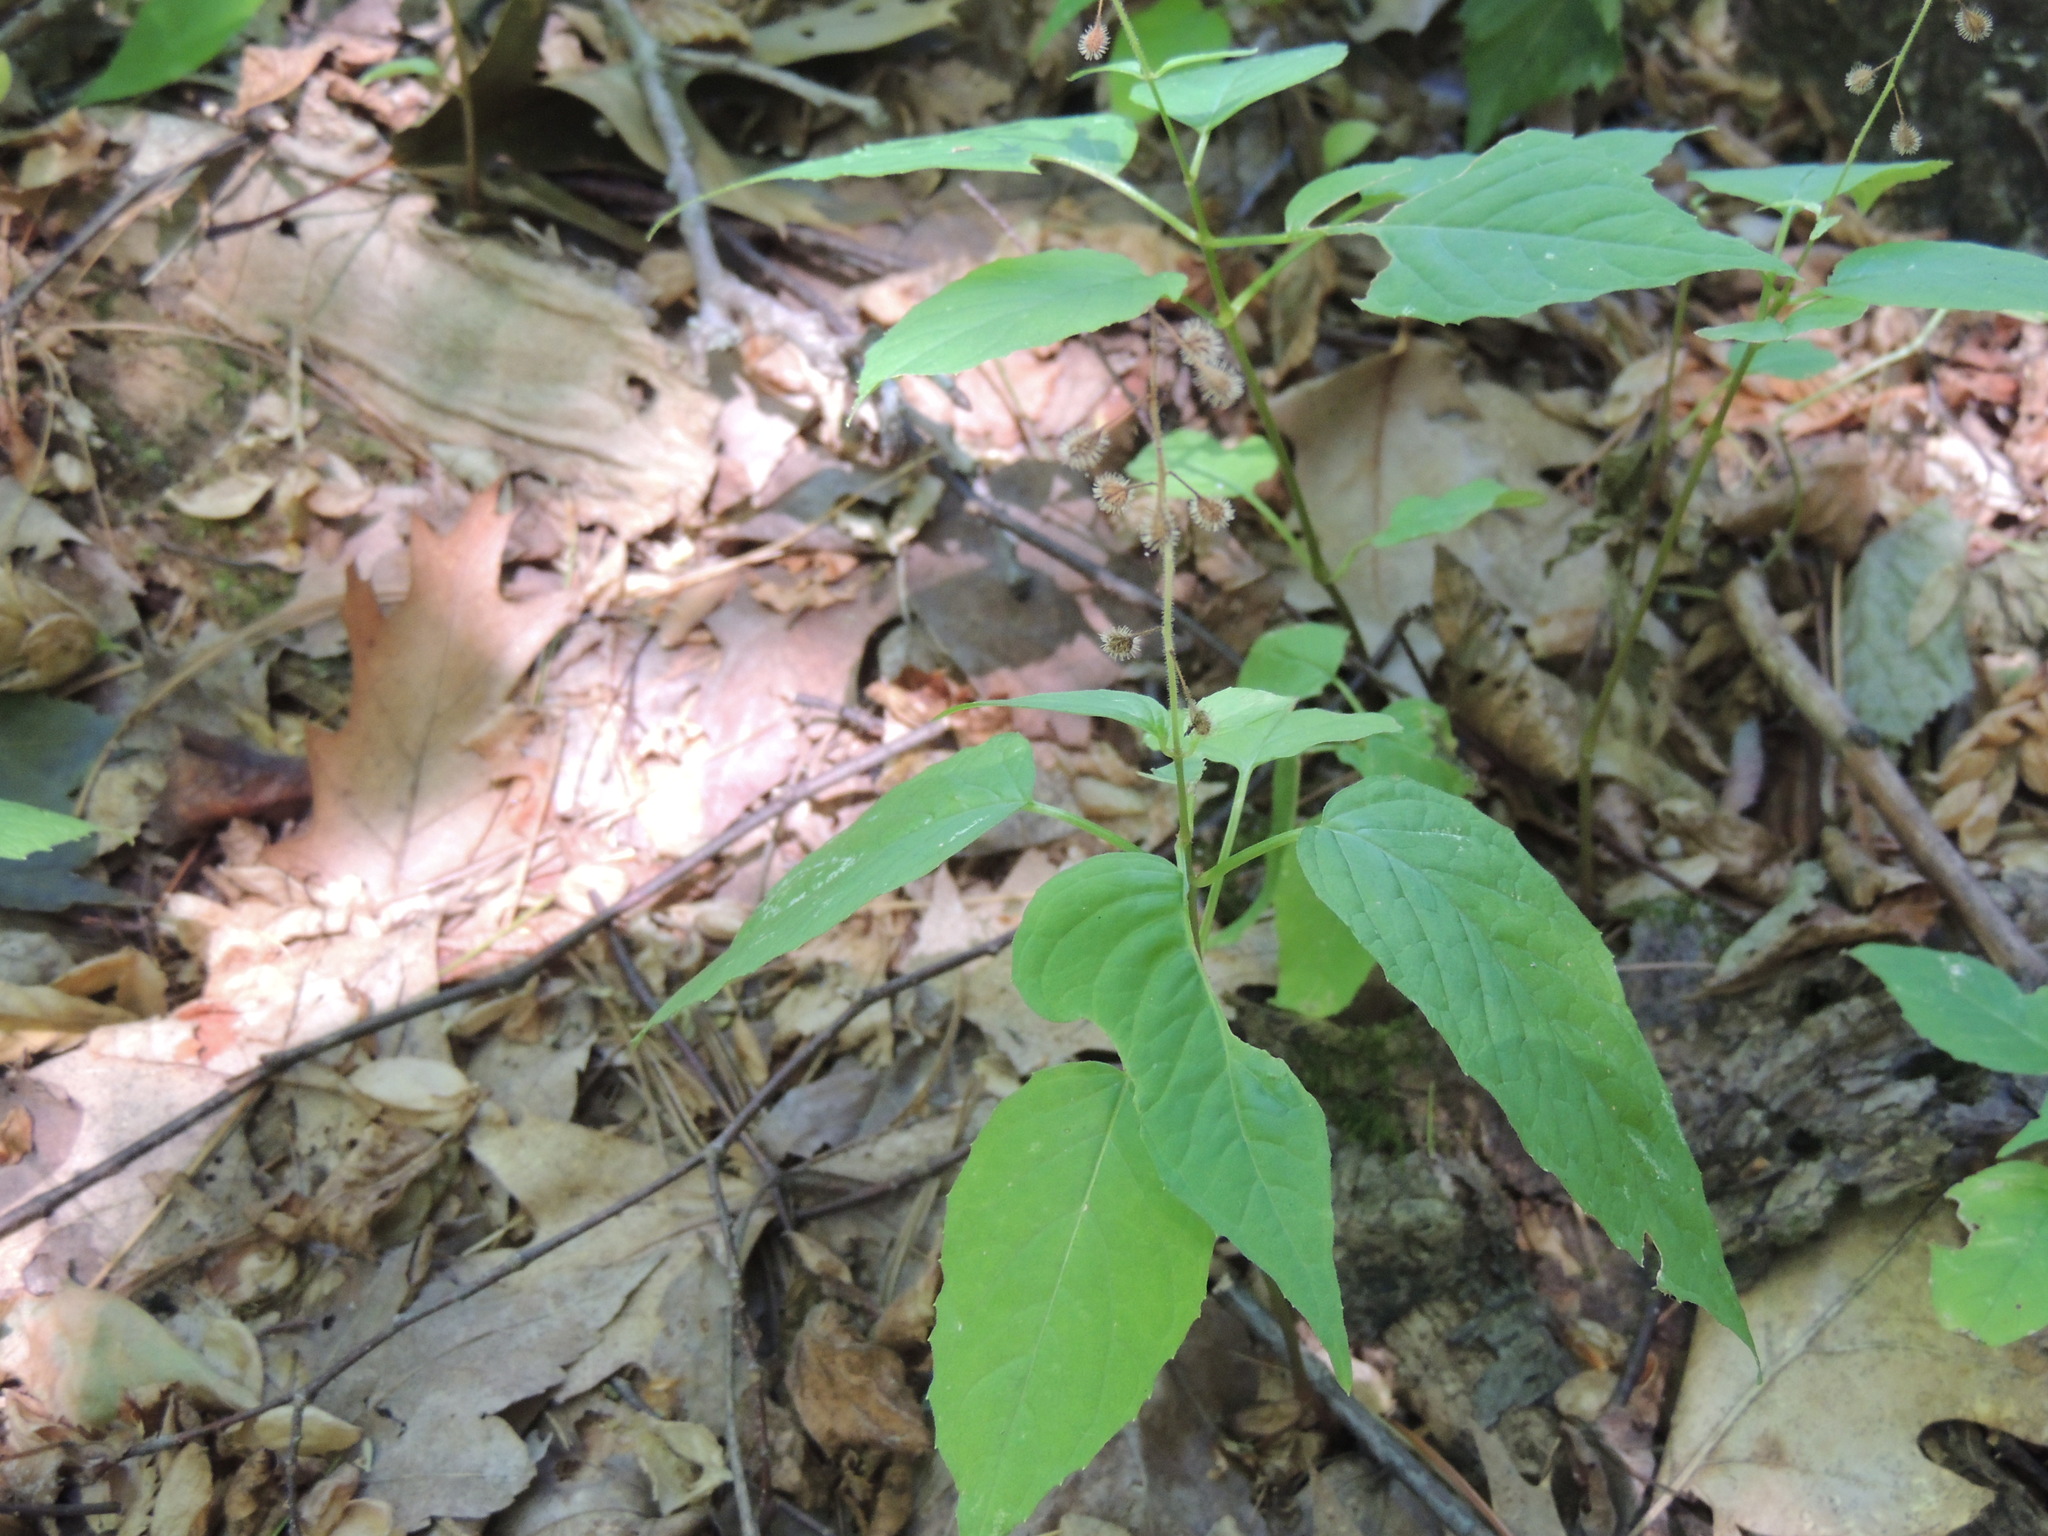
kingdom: Plantae
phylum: Tracheophyta
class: Magnoliopsida
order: Myrtales
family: Onagraceae
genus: Circaea
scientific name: Circaea canadensis
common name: Broad-leaved enchanter's nightshade
